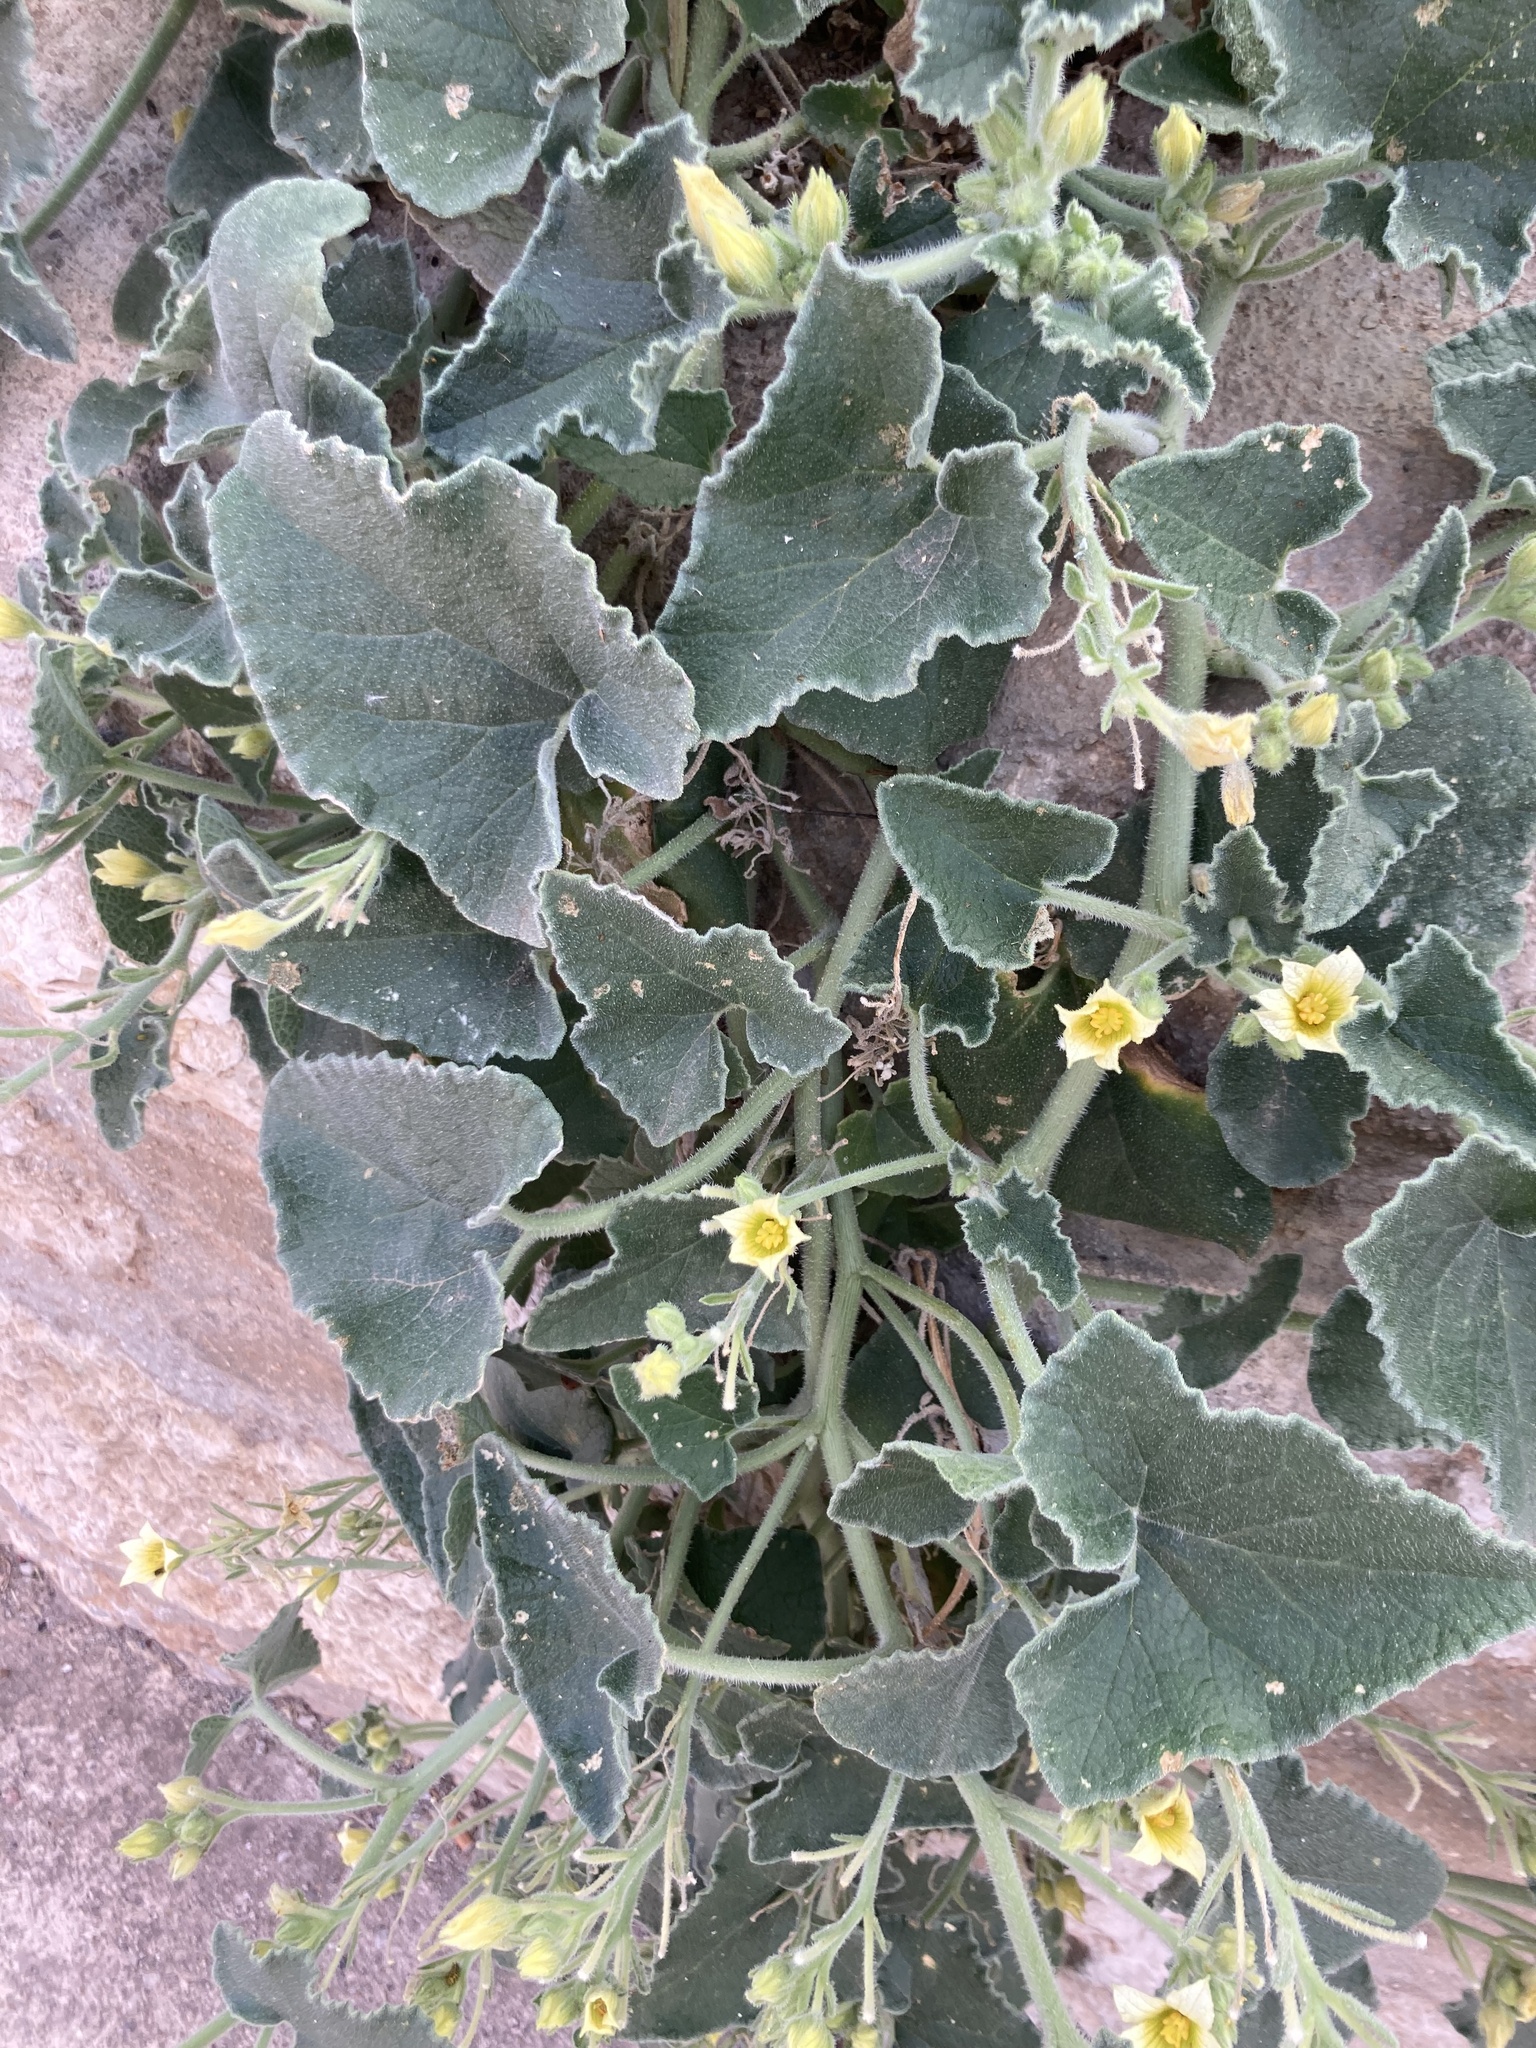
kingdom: Plantae
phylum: Tracheophyta
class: Magnoliopsida
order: Cucurbitales
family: Cucurbitaceae
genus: Ecballium
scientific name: Ecballium elaterium
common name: Squirting cucumber
